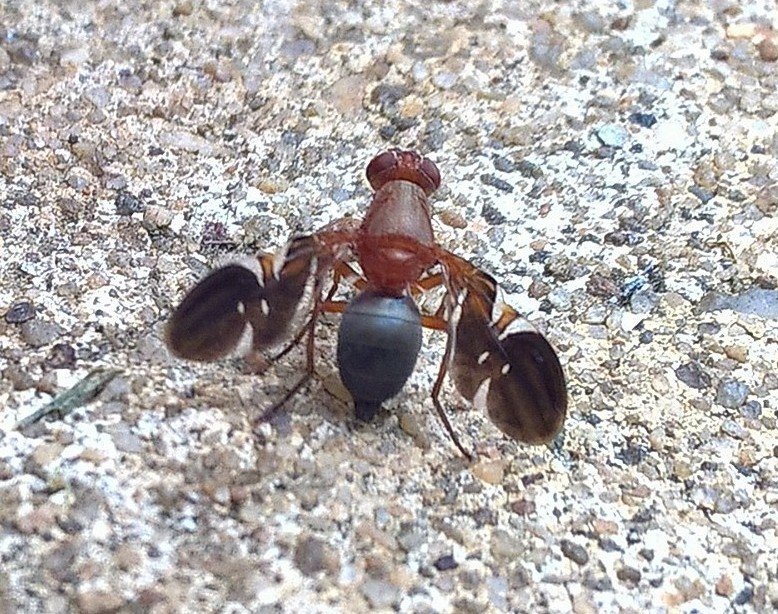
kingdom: Animalia
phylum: Arthropoda
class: Insecta
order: Diptera
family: Ulidiidae
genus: Delphinia
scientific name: Delphinia picta
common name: Common picture-winged fly
